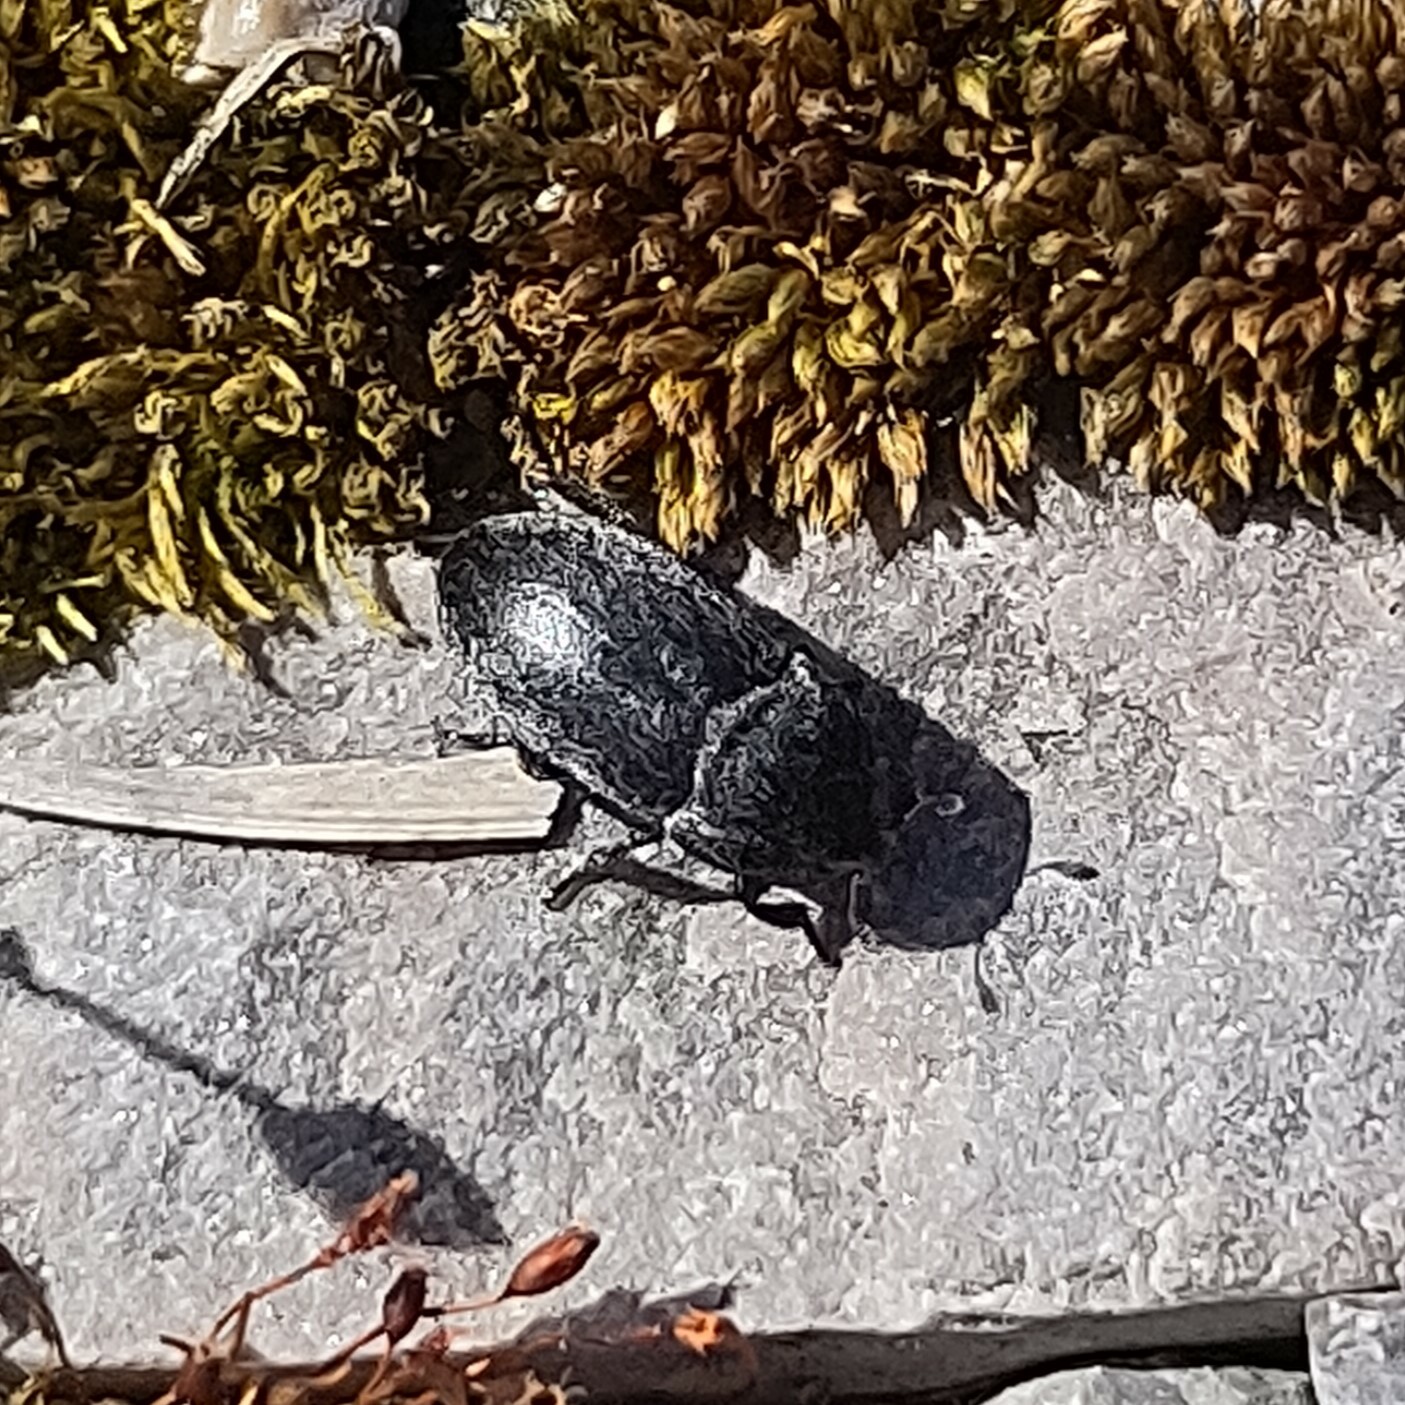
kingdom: Animalia
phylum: Arthropoda
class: Insecta
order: Coleoptera
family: Dermestidae
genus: Dermestes
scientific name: Dermestes laniarius
